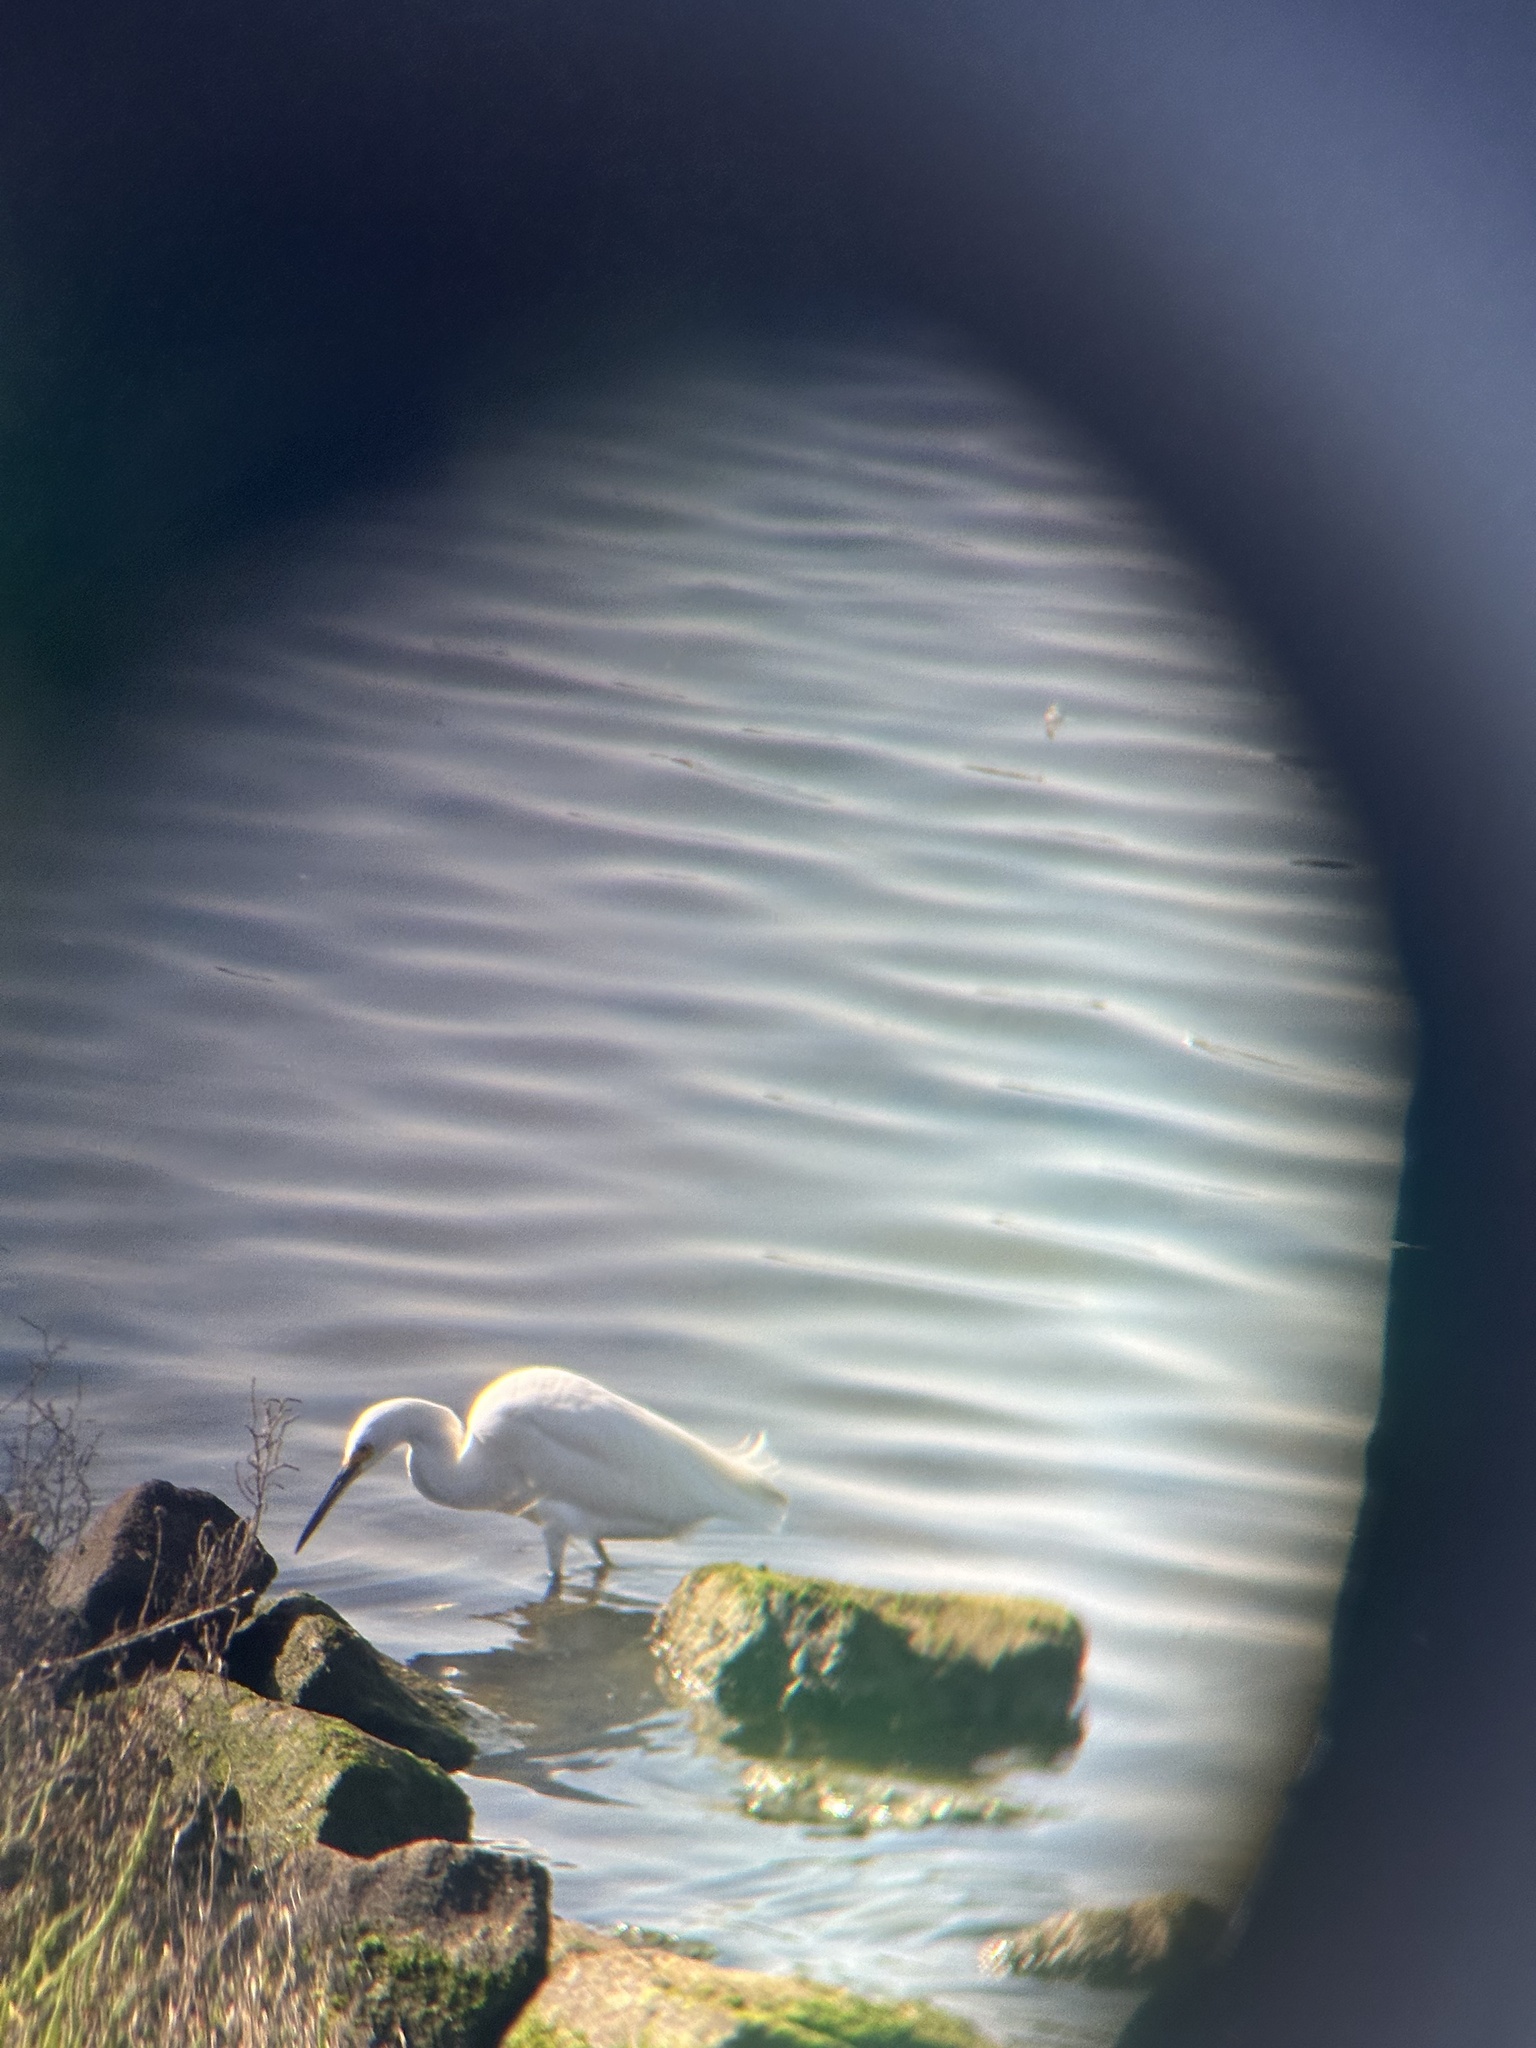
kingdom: Animalia
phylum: Chordata
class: Aves
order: Pelecaniformes
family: Ardeidae
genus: Egretta
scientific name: Egretta thula
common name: Snowy egret
